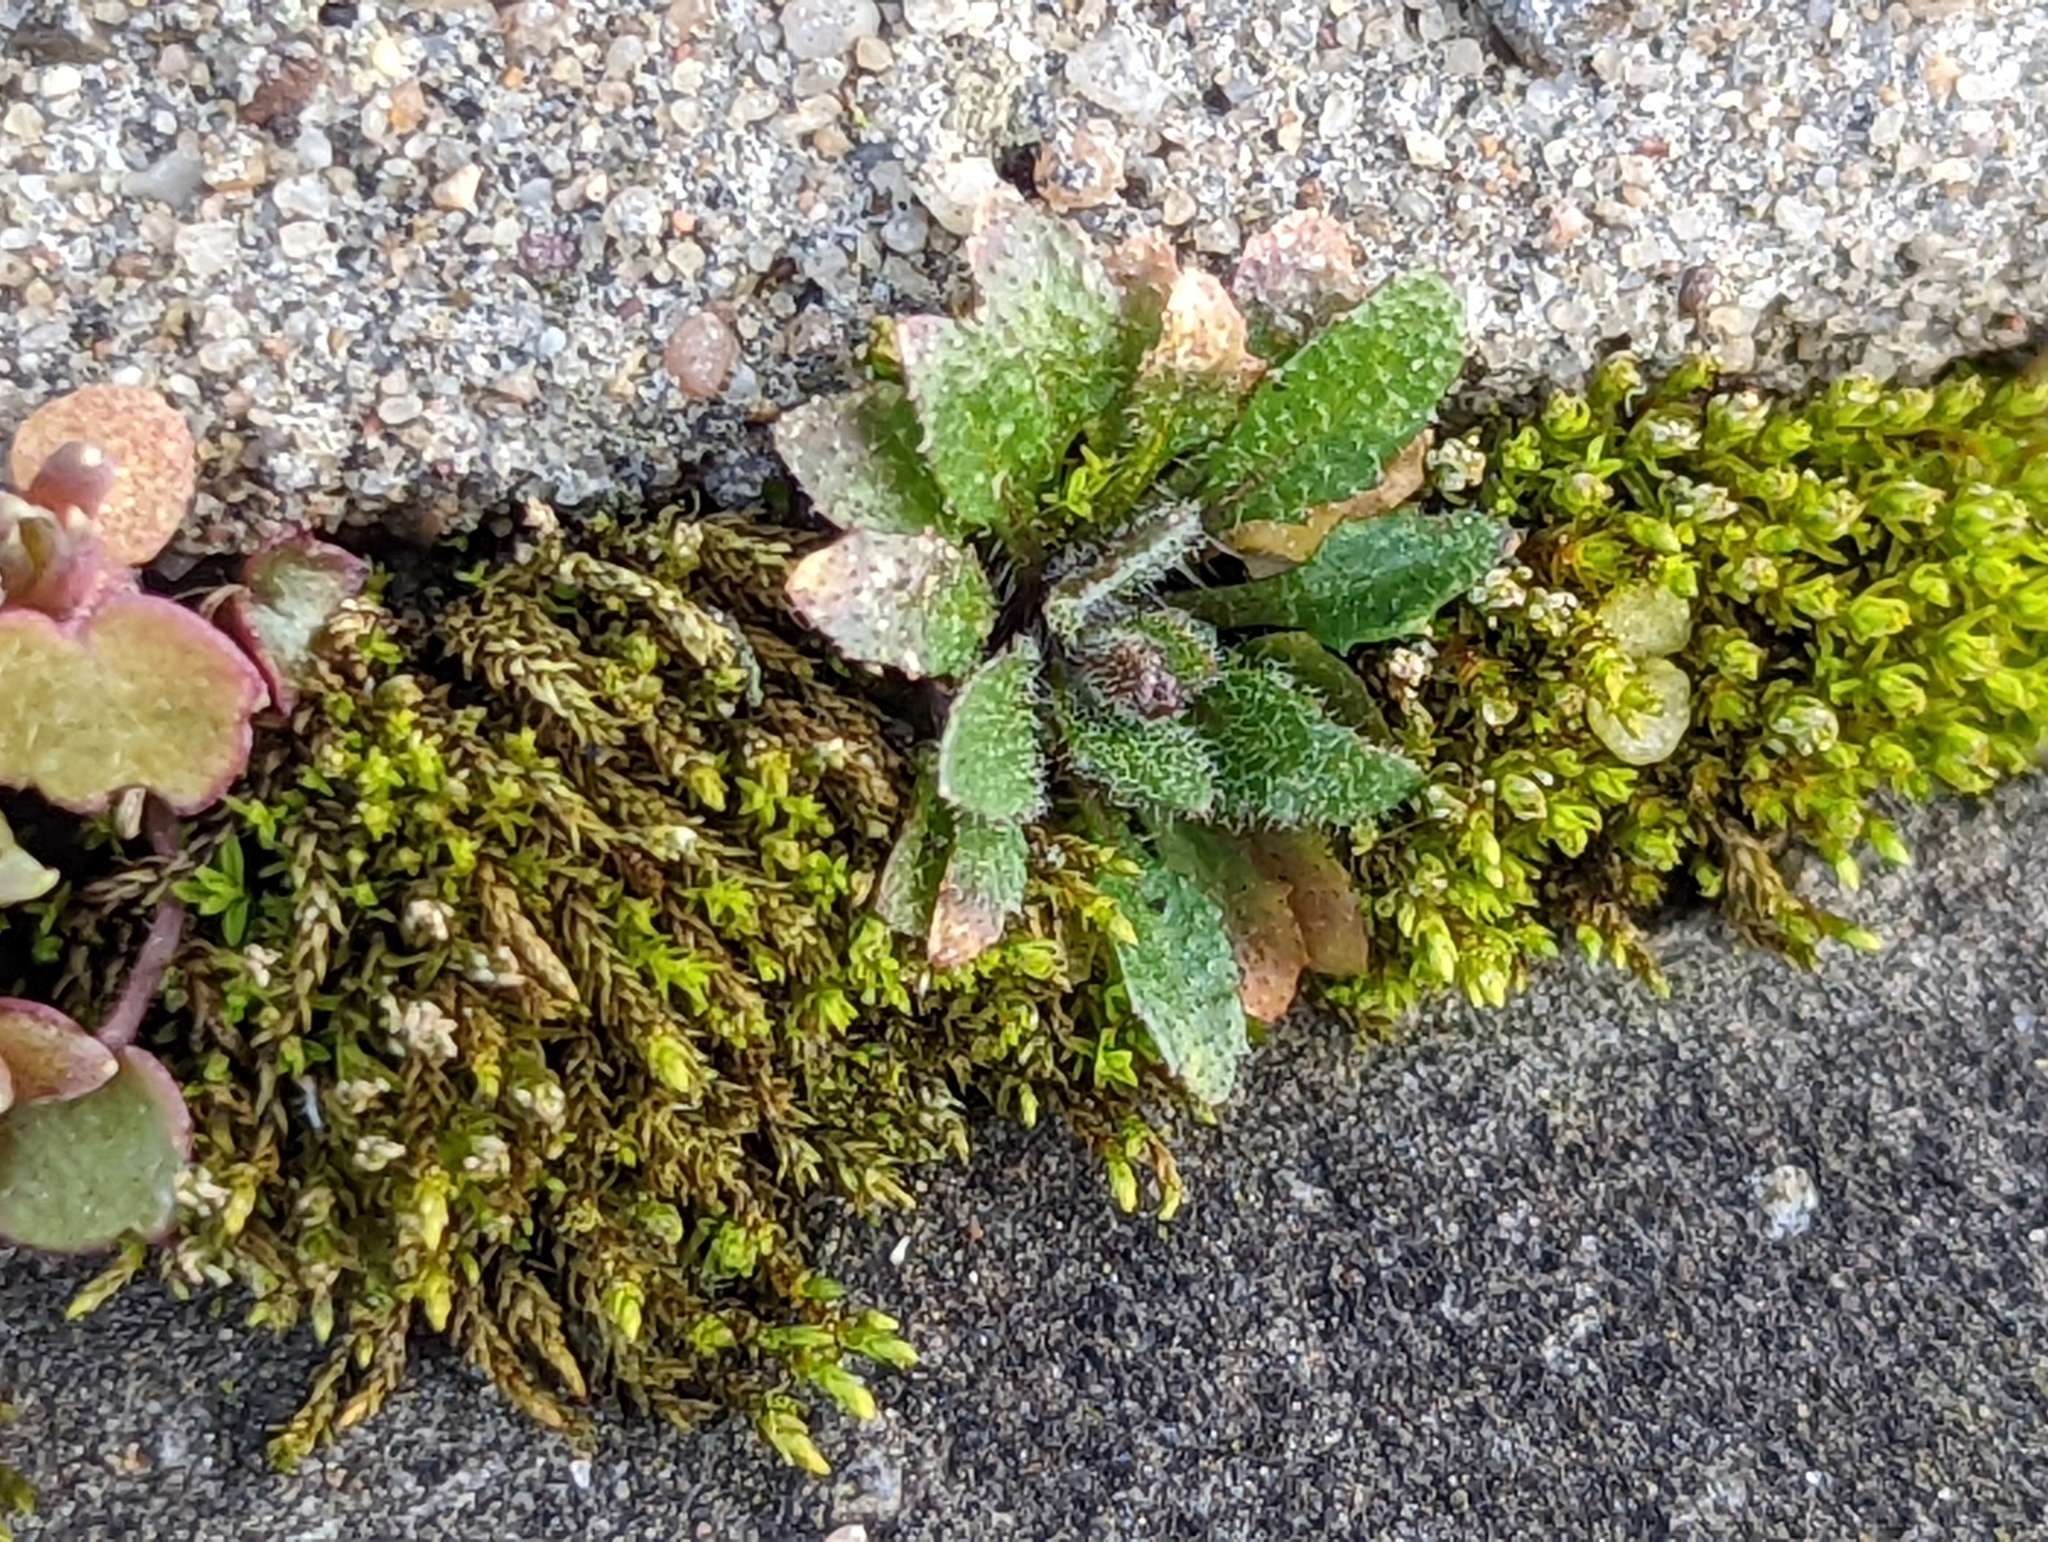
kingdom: Plantae
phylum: Tracheophyta
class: Magnoliopsida
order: Brassicales
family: Brassicaceae
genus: Arabidopsis
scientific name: Arabidopsis thaliana
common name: Thale cress
